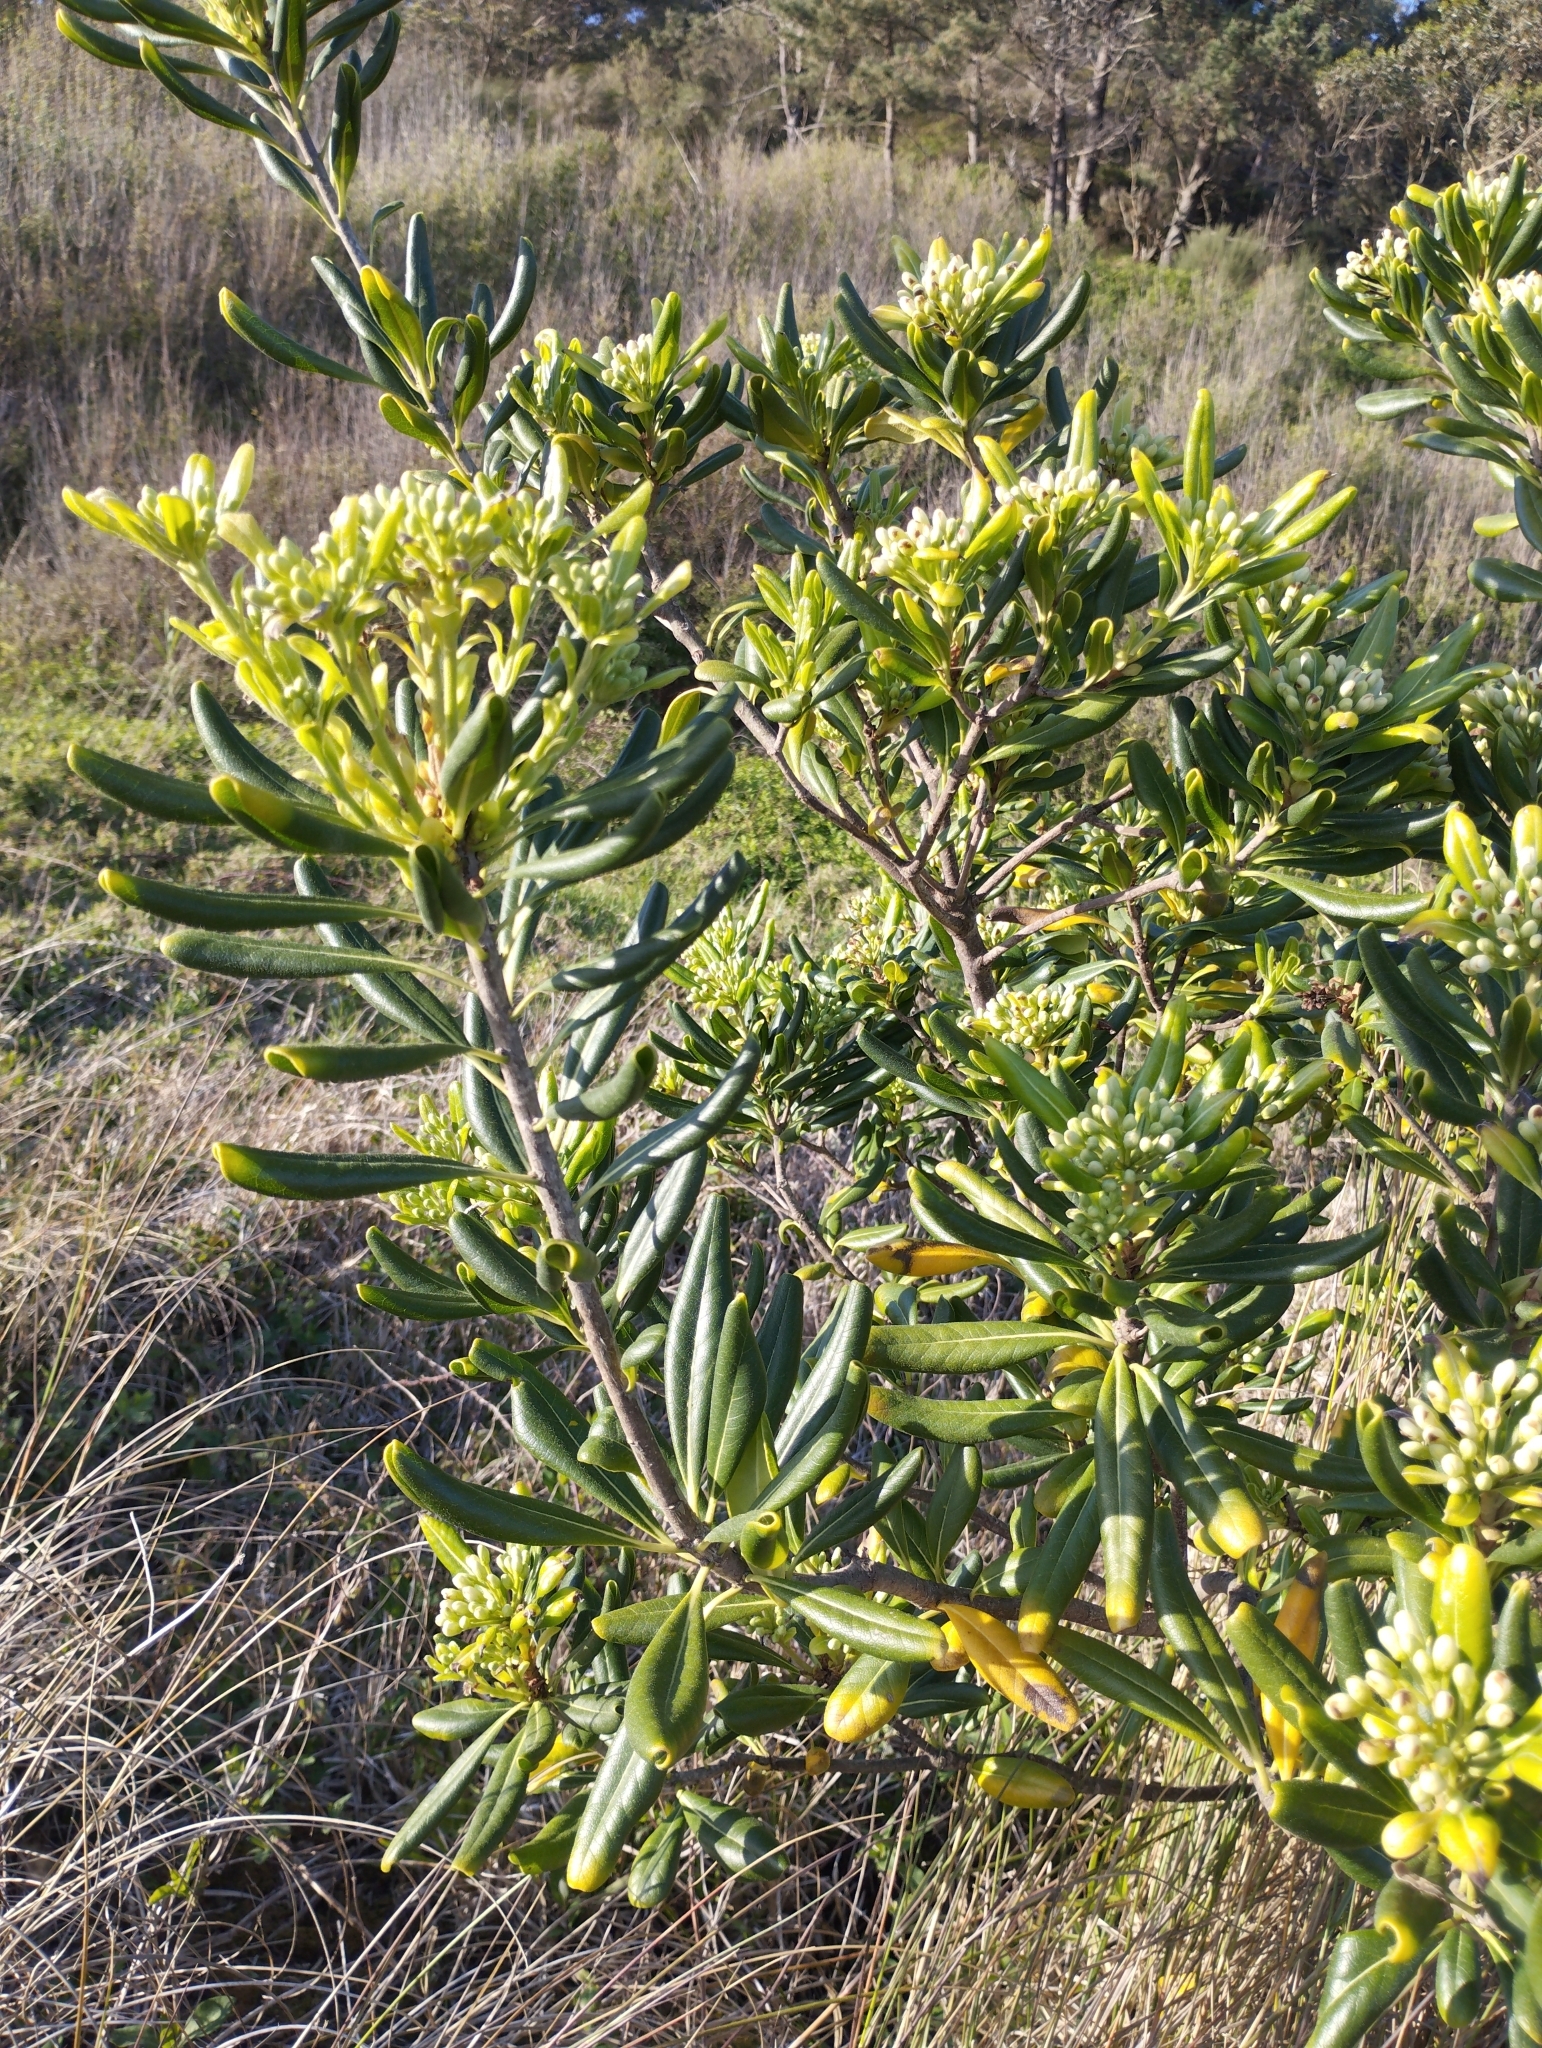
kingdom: Plantae
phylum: Tracheophyta
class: Magnoliopsida
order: Apiales
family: Pittosporaceae
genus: Pittosporum
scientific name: Pittosporum tobira
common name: Japanese cheesewood
